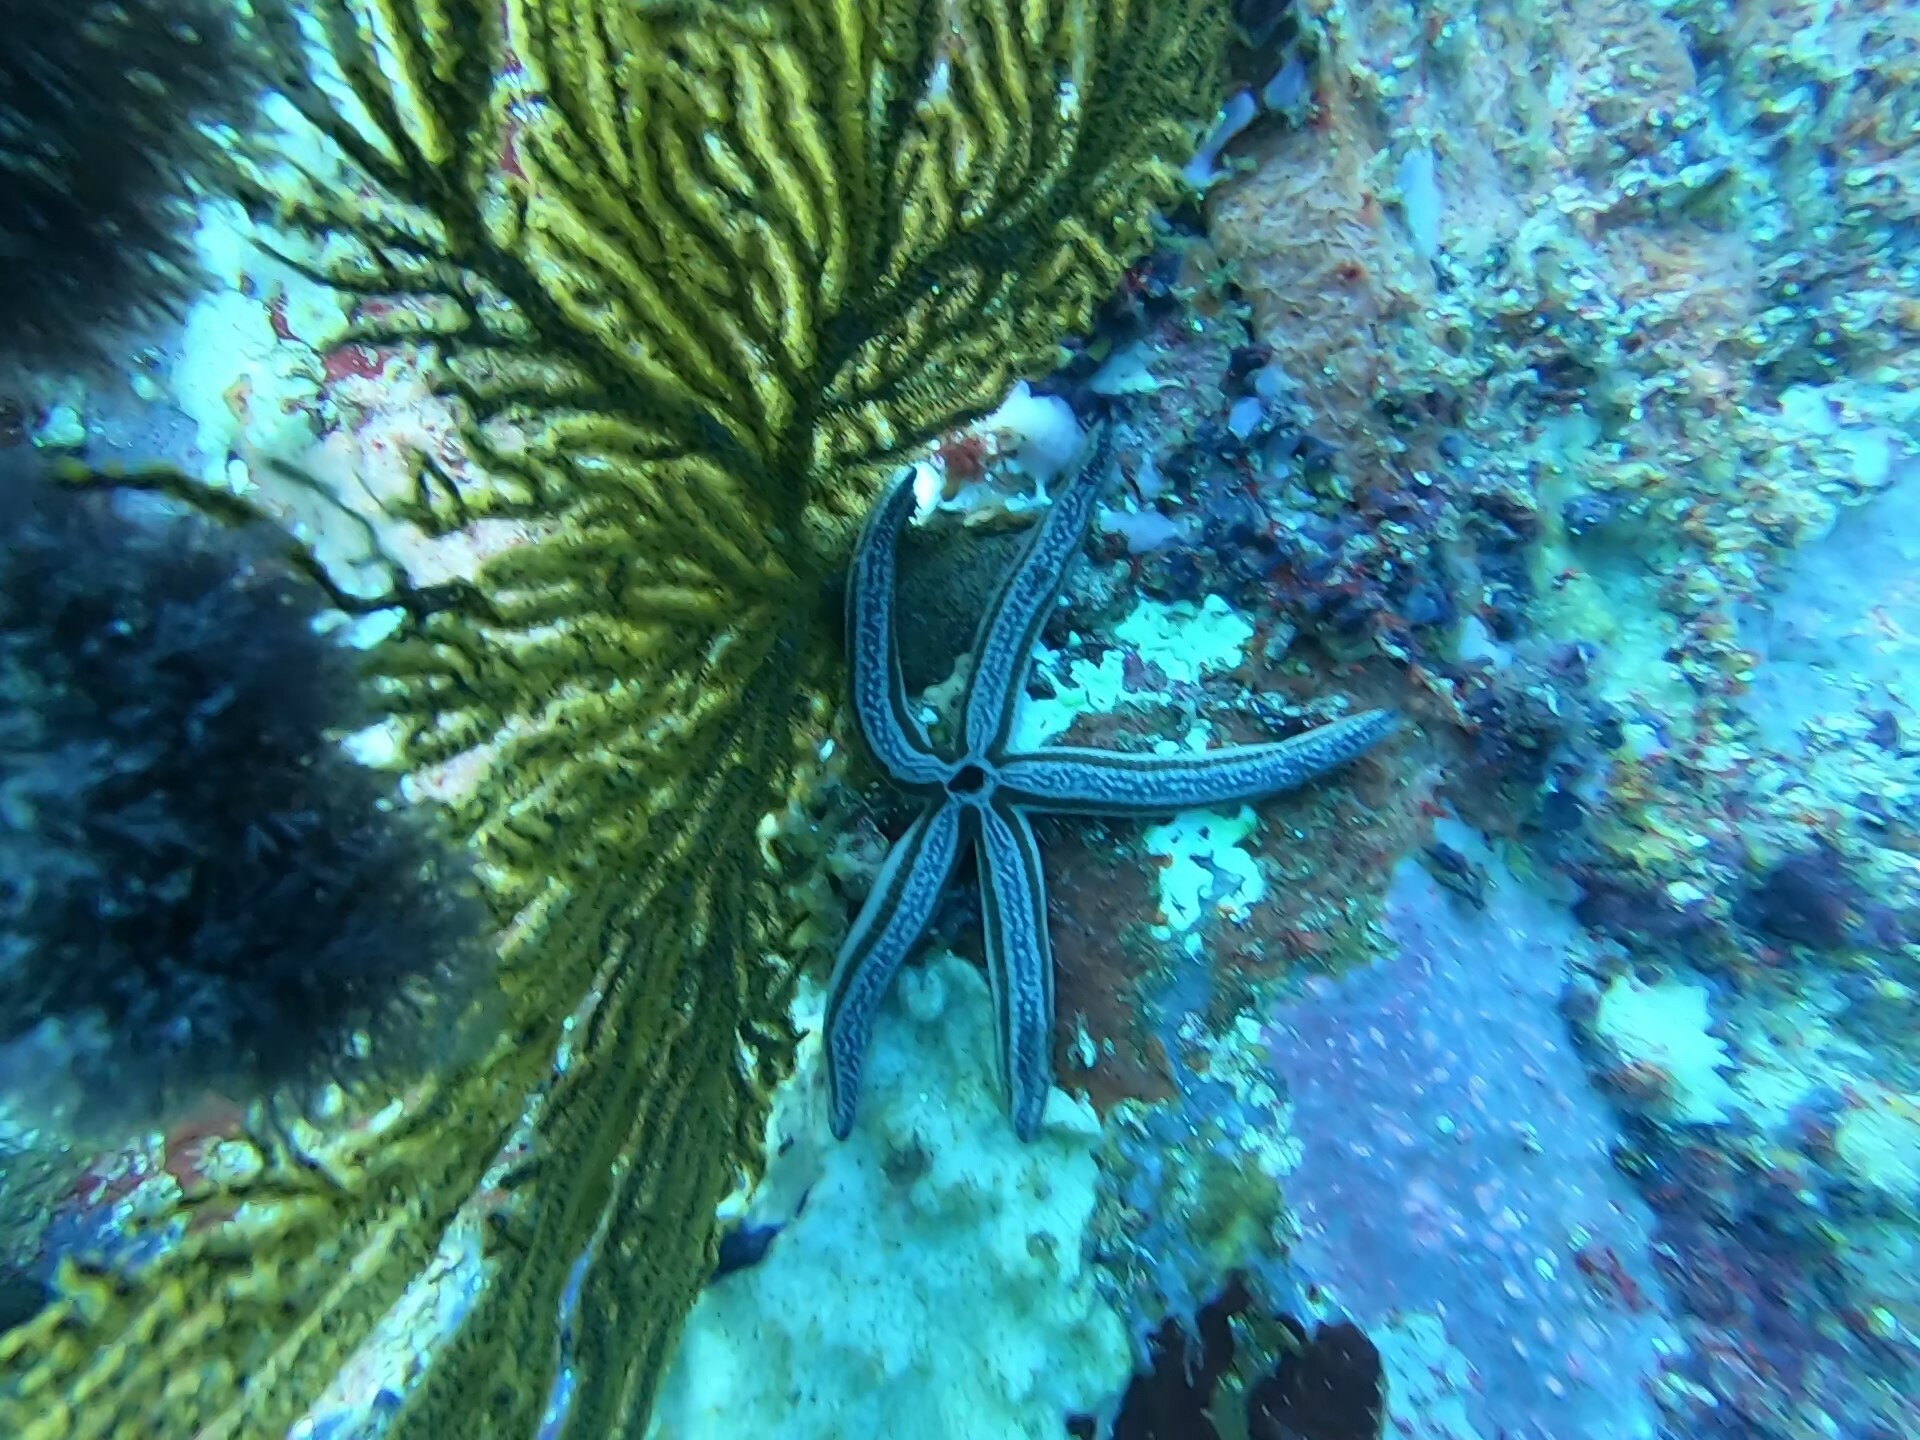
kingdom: Animalia
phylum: Echinodermata
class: Asteroidea
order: Valvatida
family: Ophidiasteridae
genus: Phataria
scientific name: Phataria unifascialis
